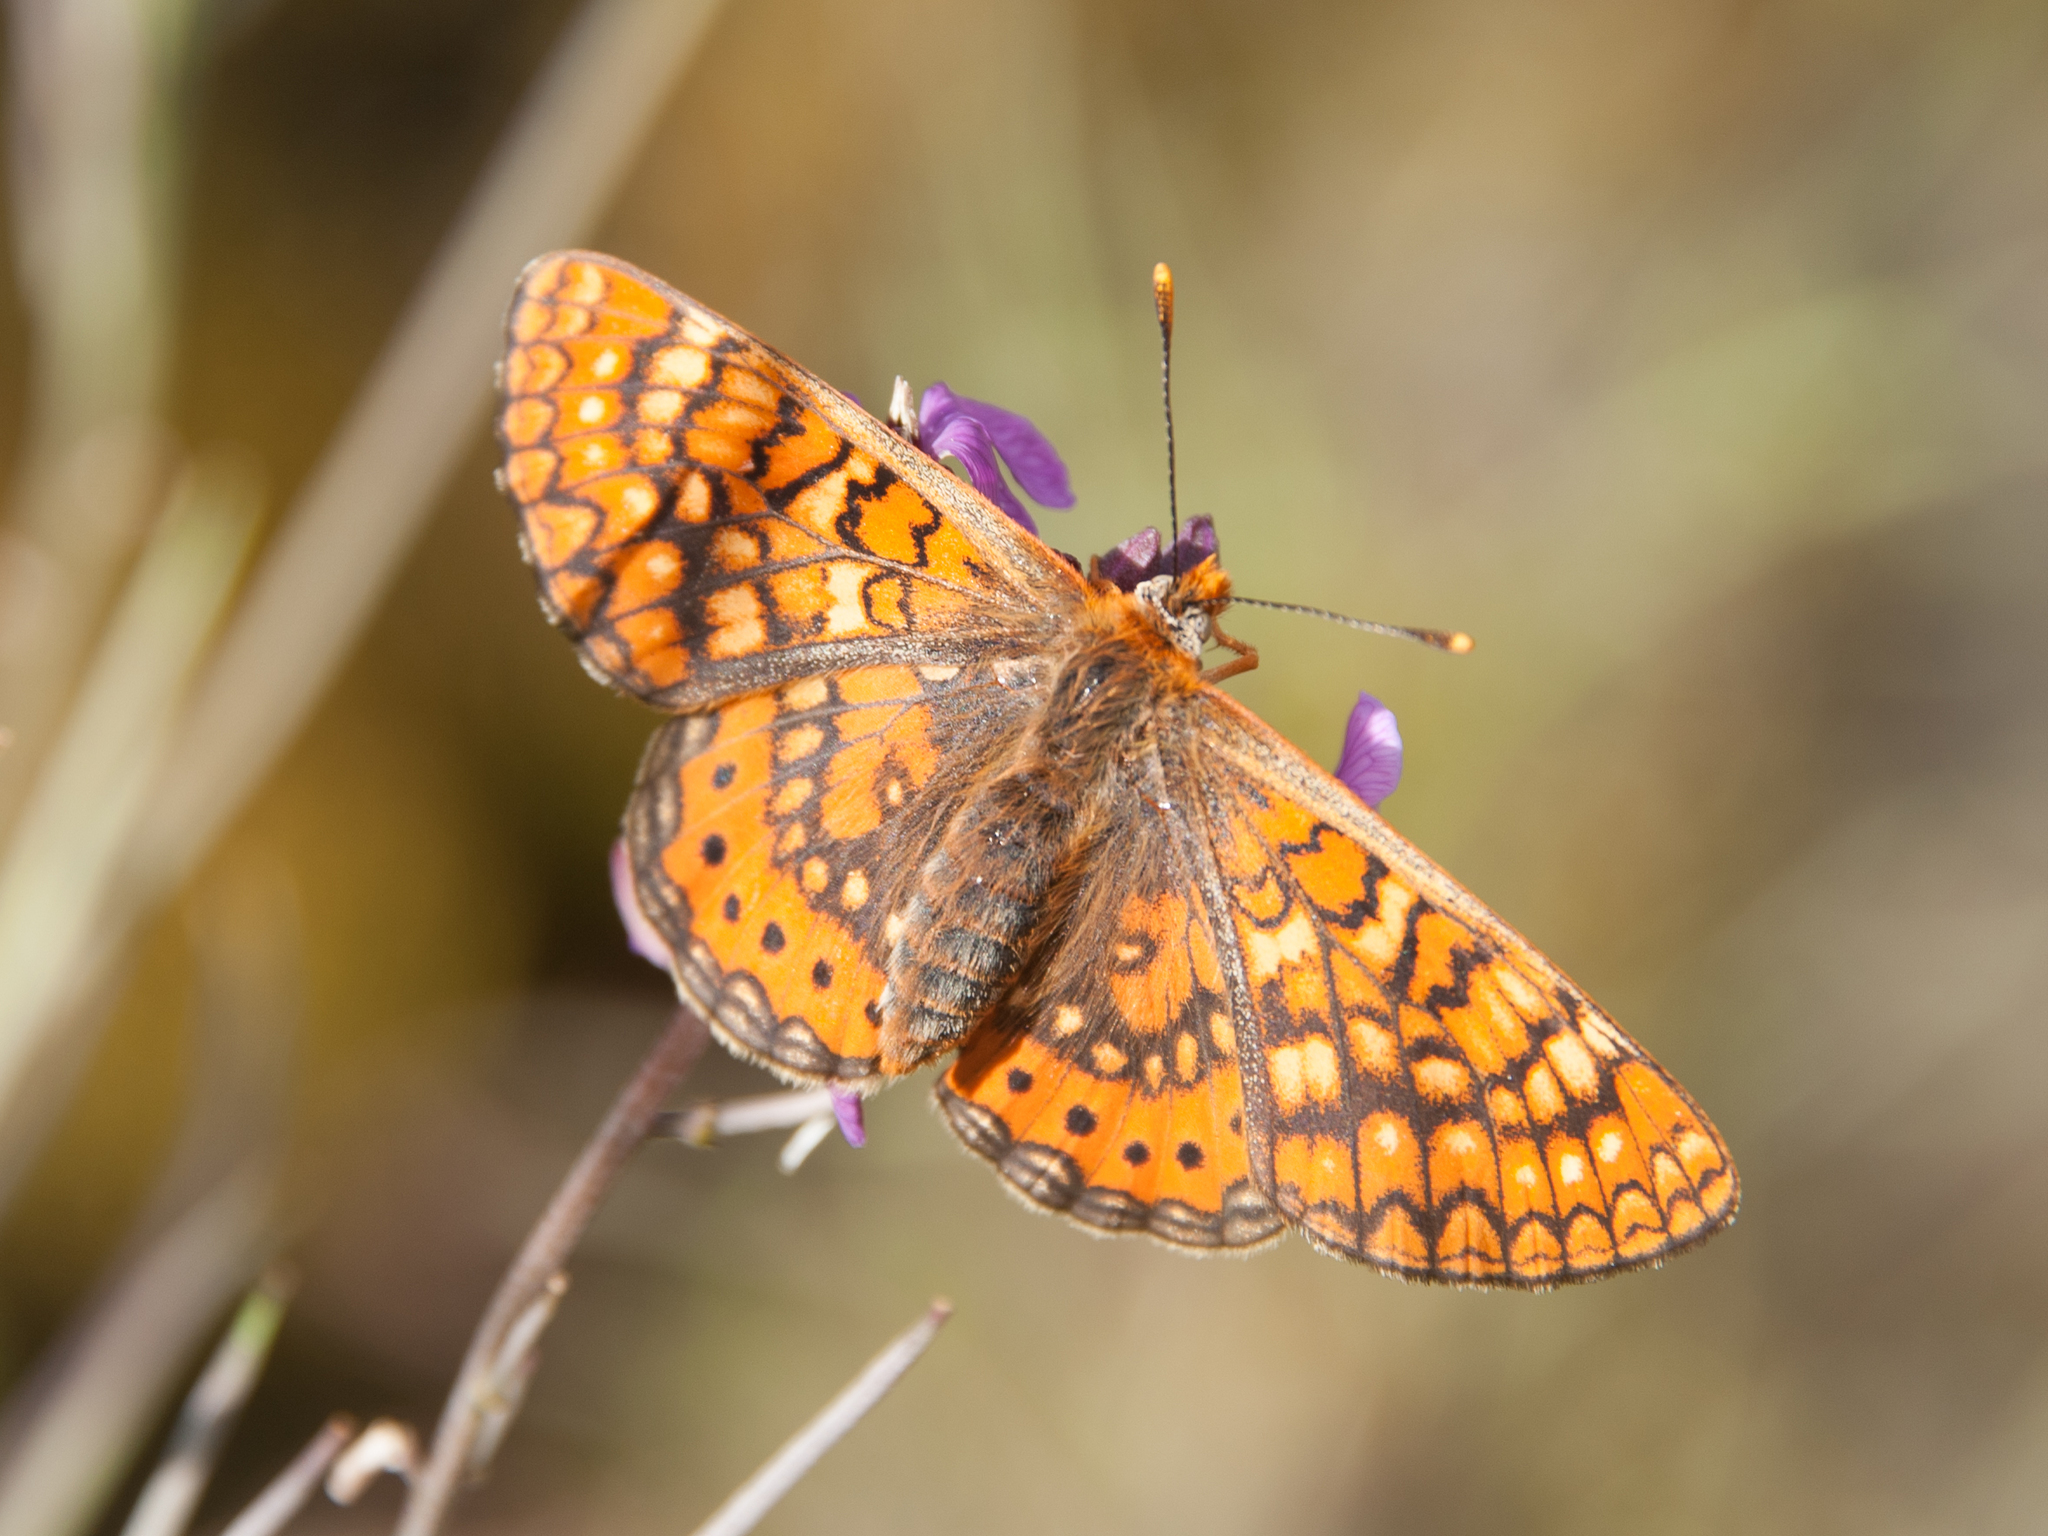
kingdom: Animalia
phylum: Arthropoda
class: Insecta
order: Lepidoptera
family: Nymphalidae
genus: Euphydryas
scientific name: Euphydryas aurinia
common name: Marsh fritillary
